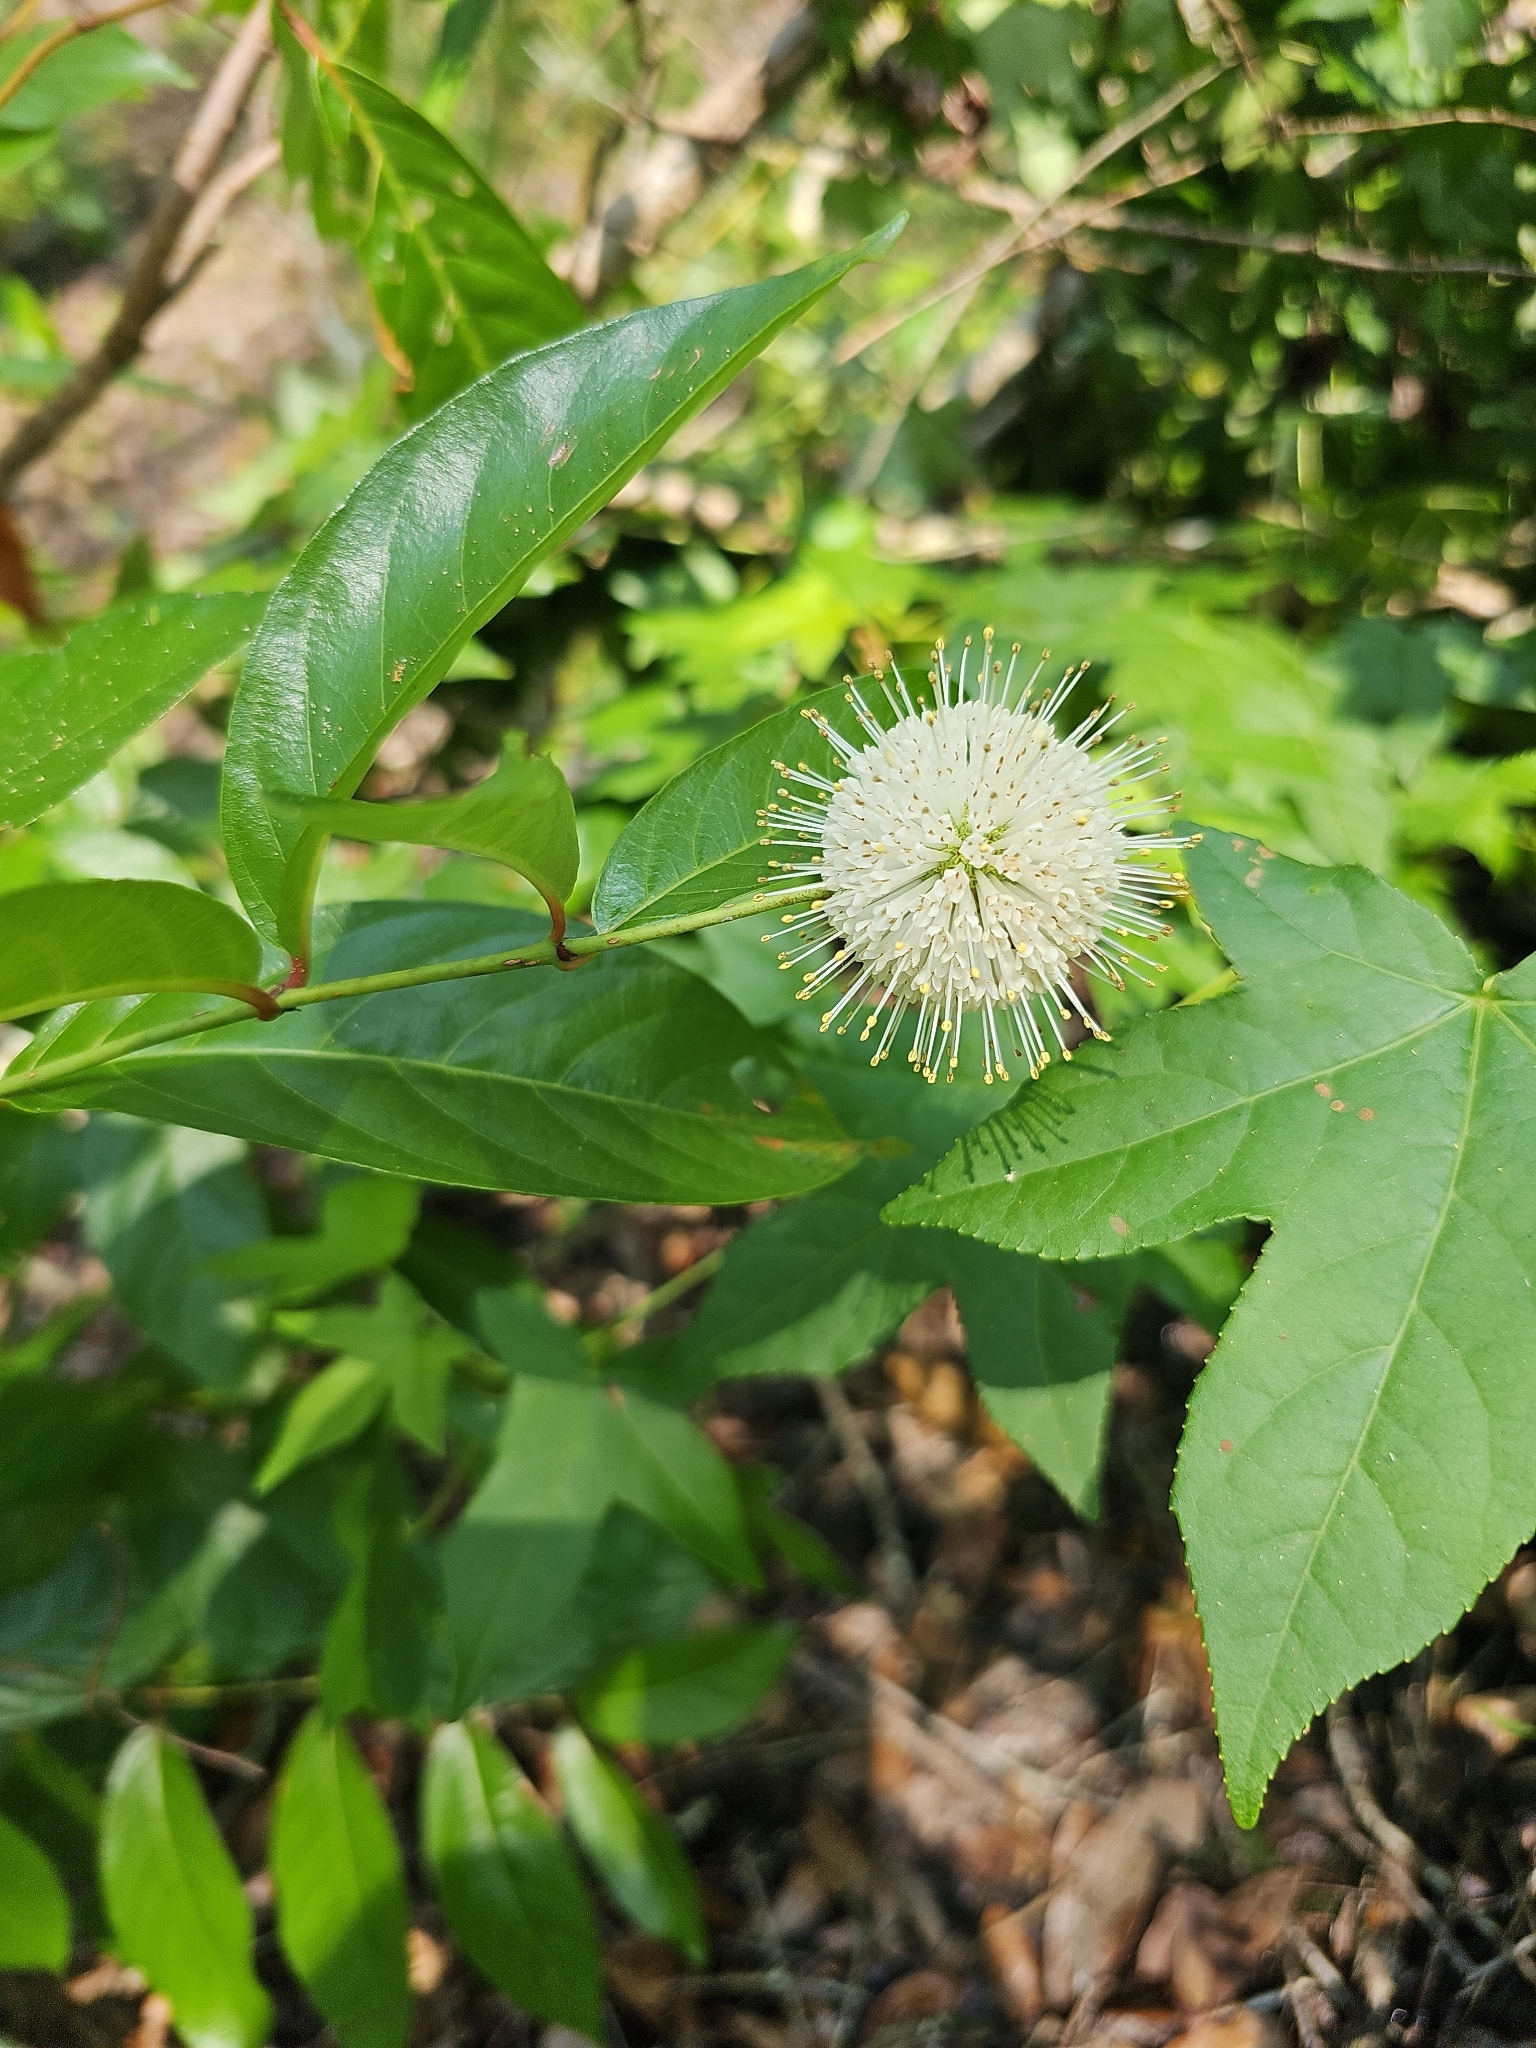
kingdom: Plantae
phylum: Tracheophyta
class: Magnoliopsida
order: Gentianales
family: Rubiaceae
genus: Cephalanthus
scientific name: Cephalanthus occidentalis
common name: Button-willow
